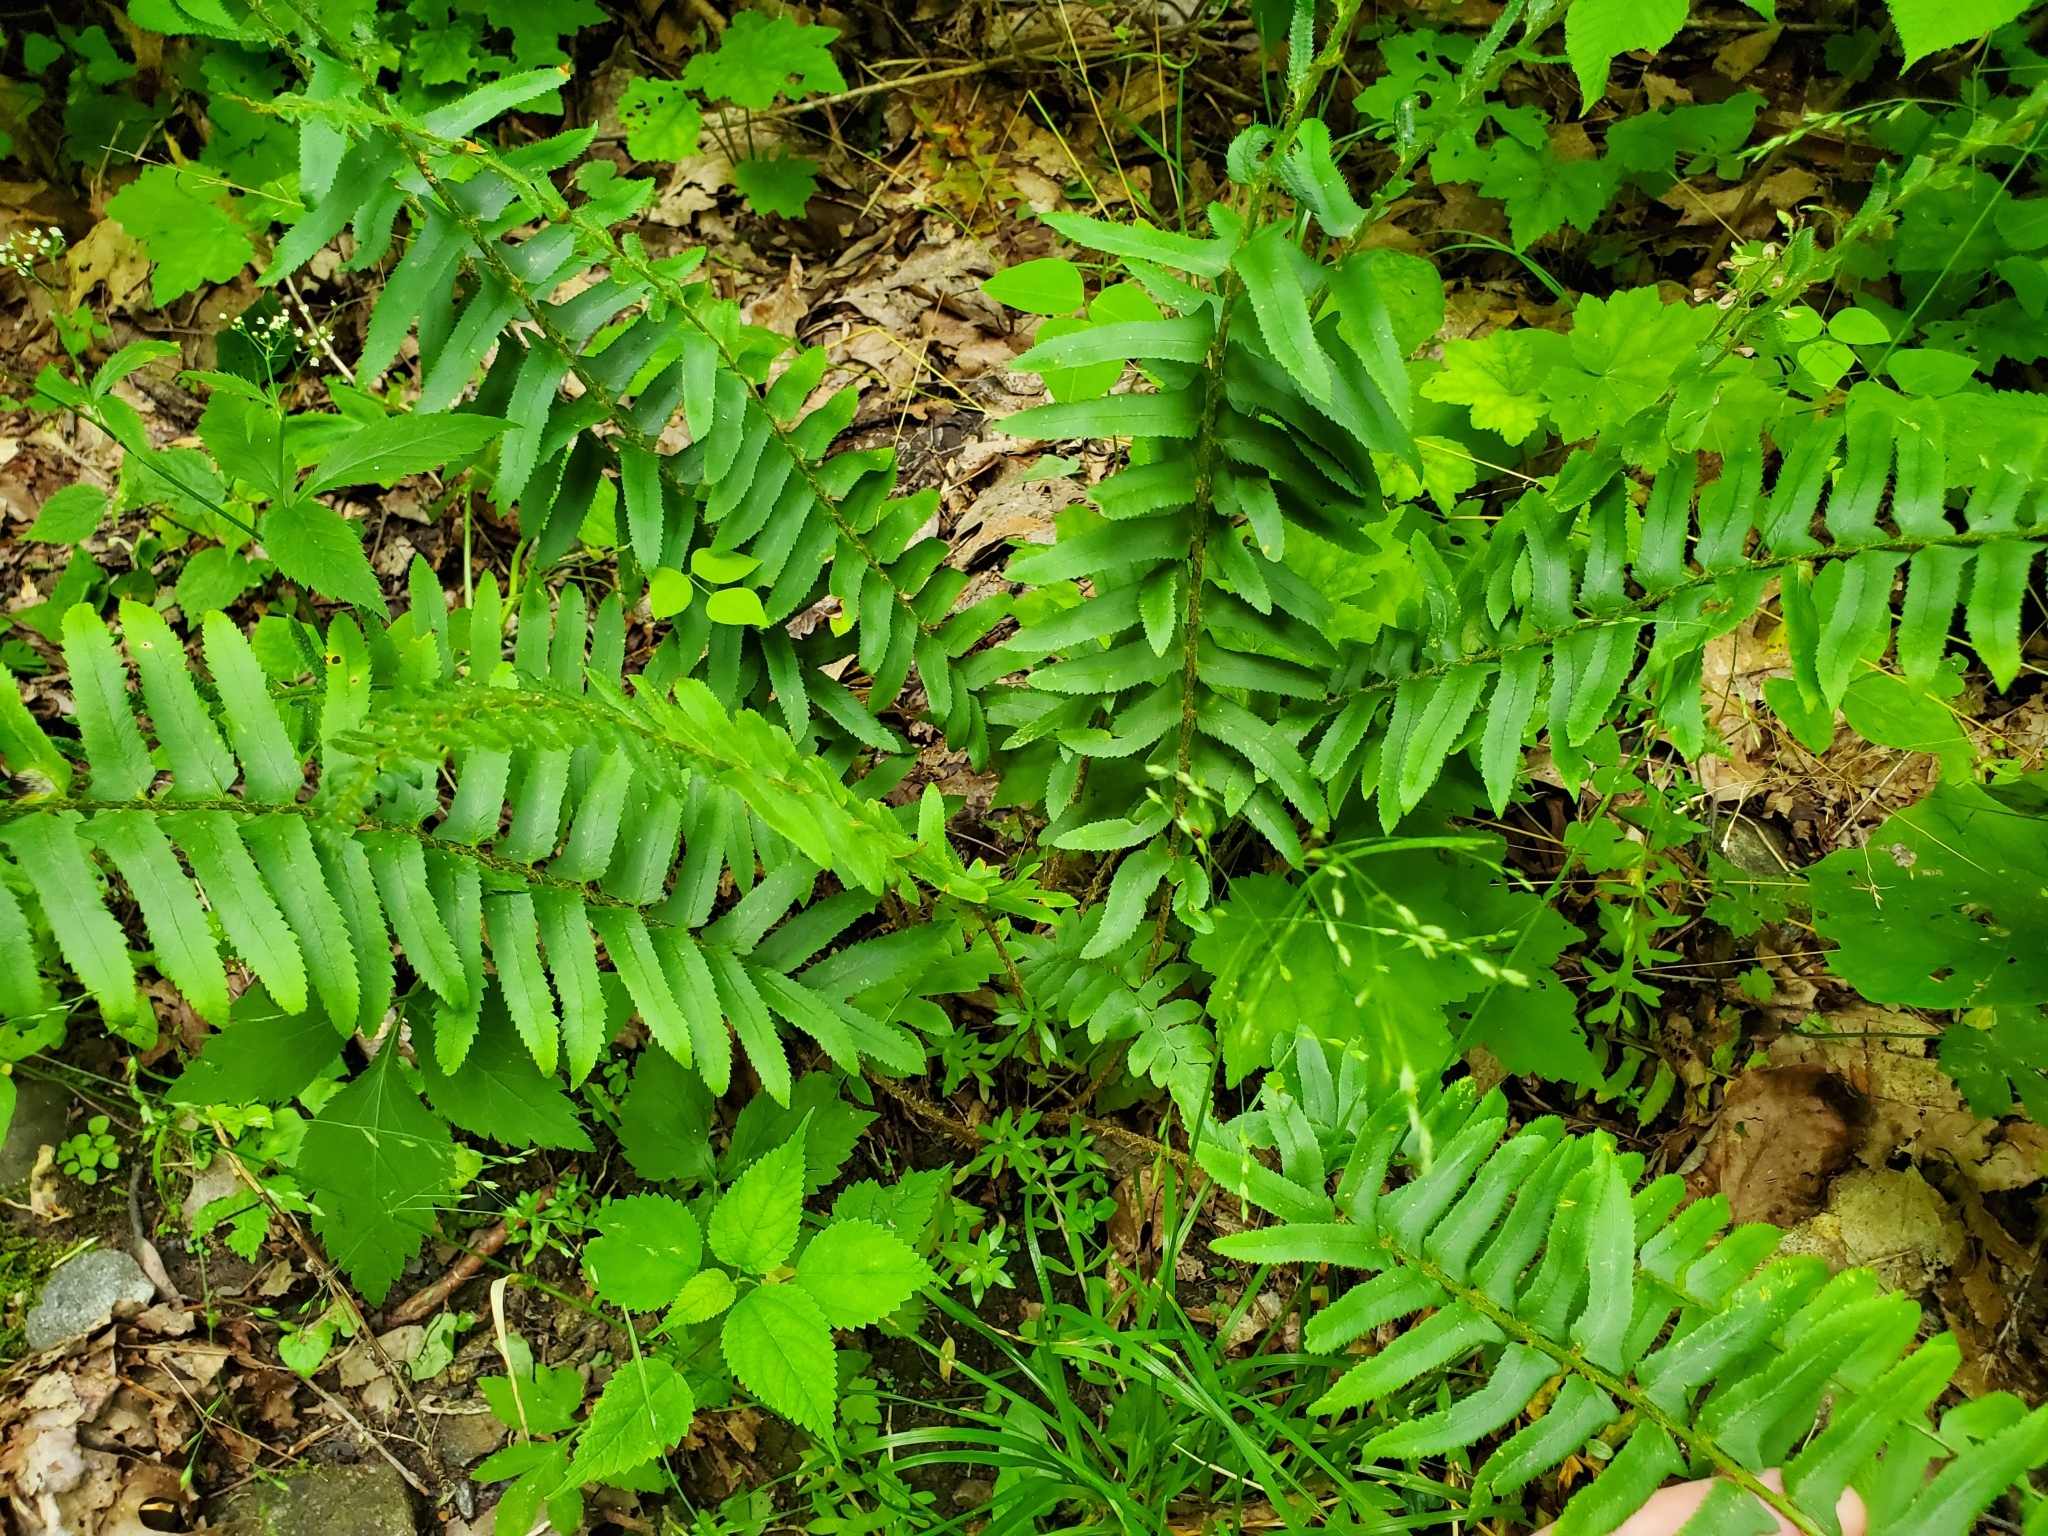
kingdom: Plantae
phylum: Tracheophyta
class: Polypodiopsida
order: Polypodiales
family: Dryopteridaceae
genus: Polystichum
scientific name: Polystichum acrostichoides
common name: Christmas fern
